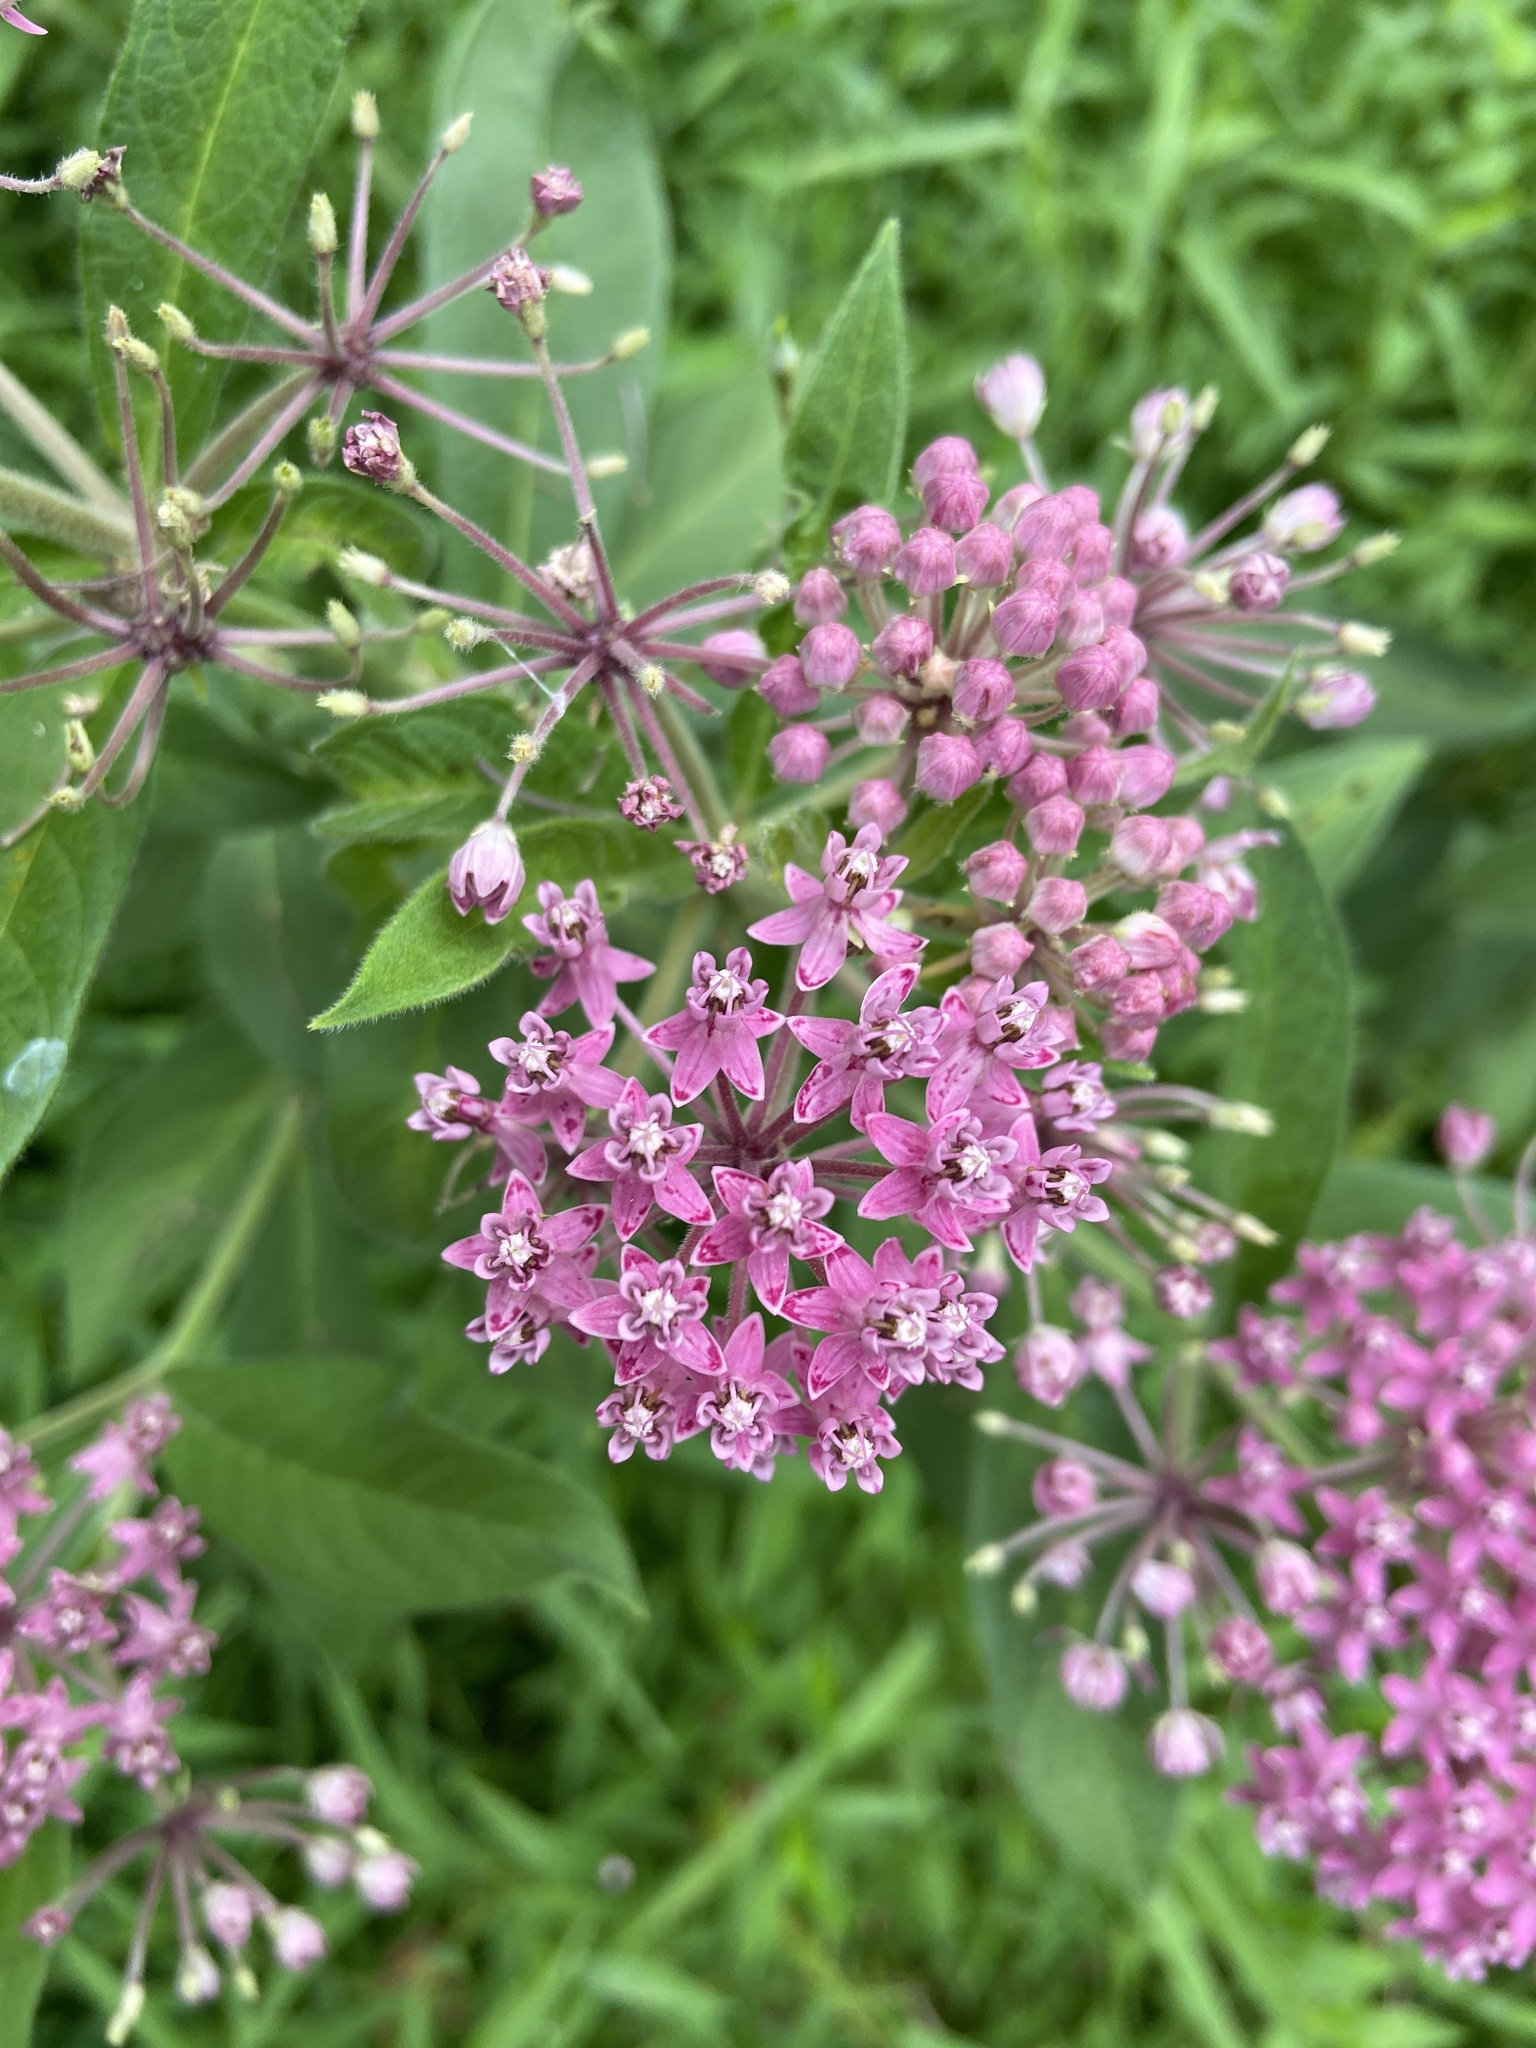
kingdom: Plantae
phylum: Tracheophyta
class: Magnoliopsida
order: Gentianales
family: Apocynaceae
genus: Asclepias
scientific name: Asclepias incarnata
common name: Swamp milkweed
